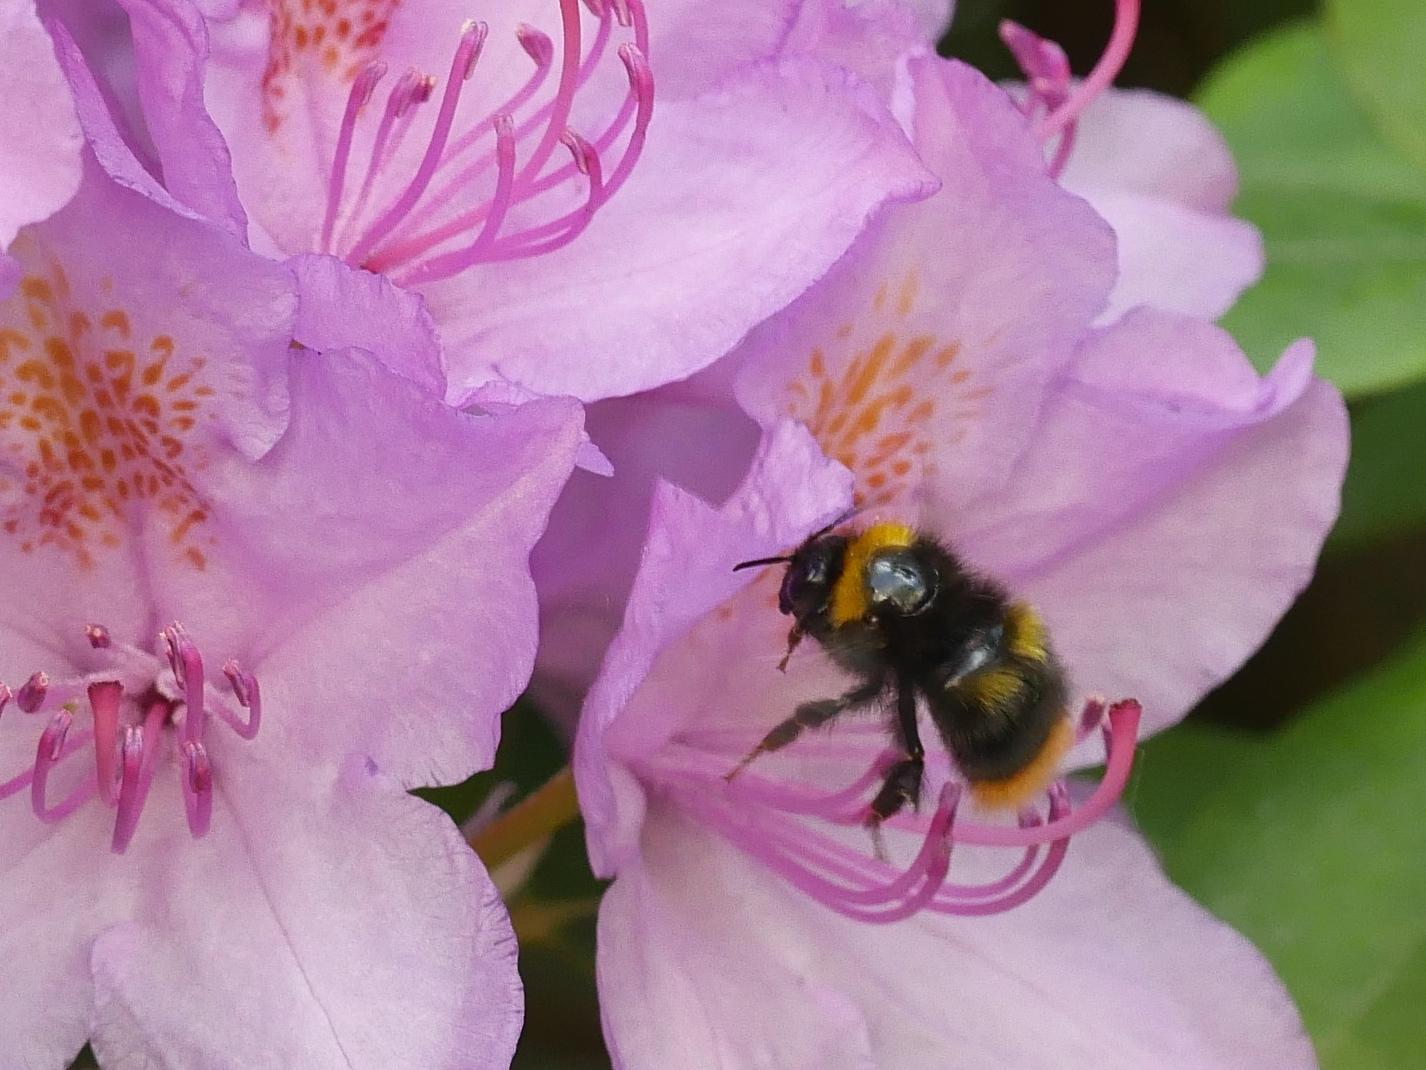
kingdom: Animalia
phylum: Arthropoda
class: Insecta
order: Hymenoptera
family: Apidae
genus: Bombus
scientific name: Bombus pratorum
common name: Early humble-bee
